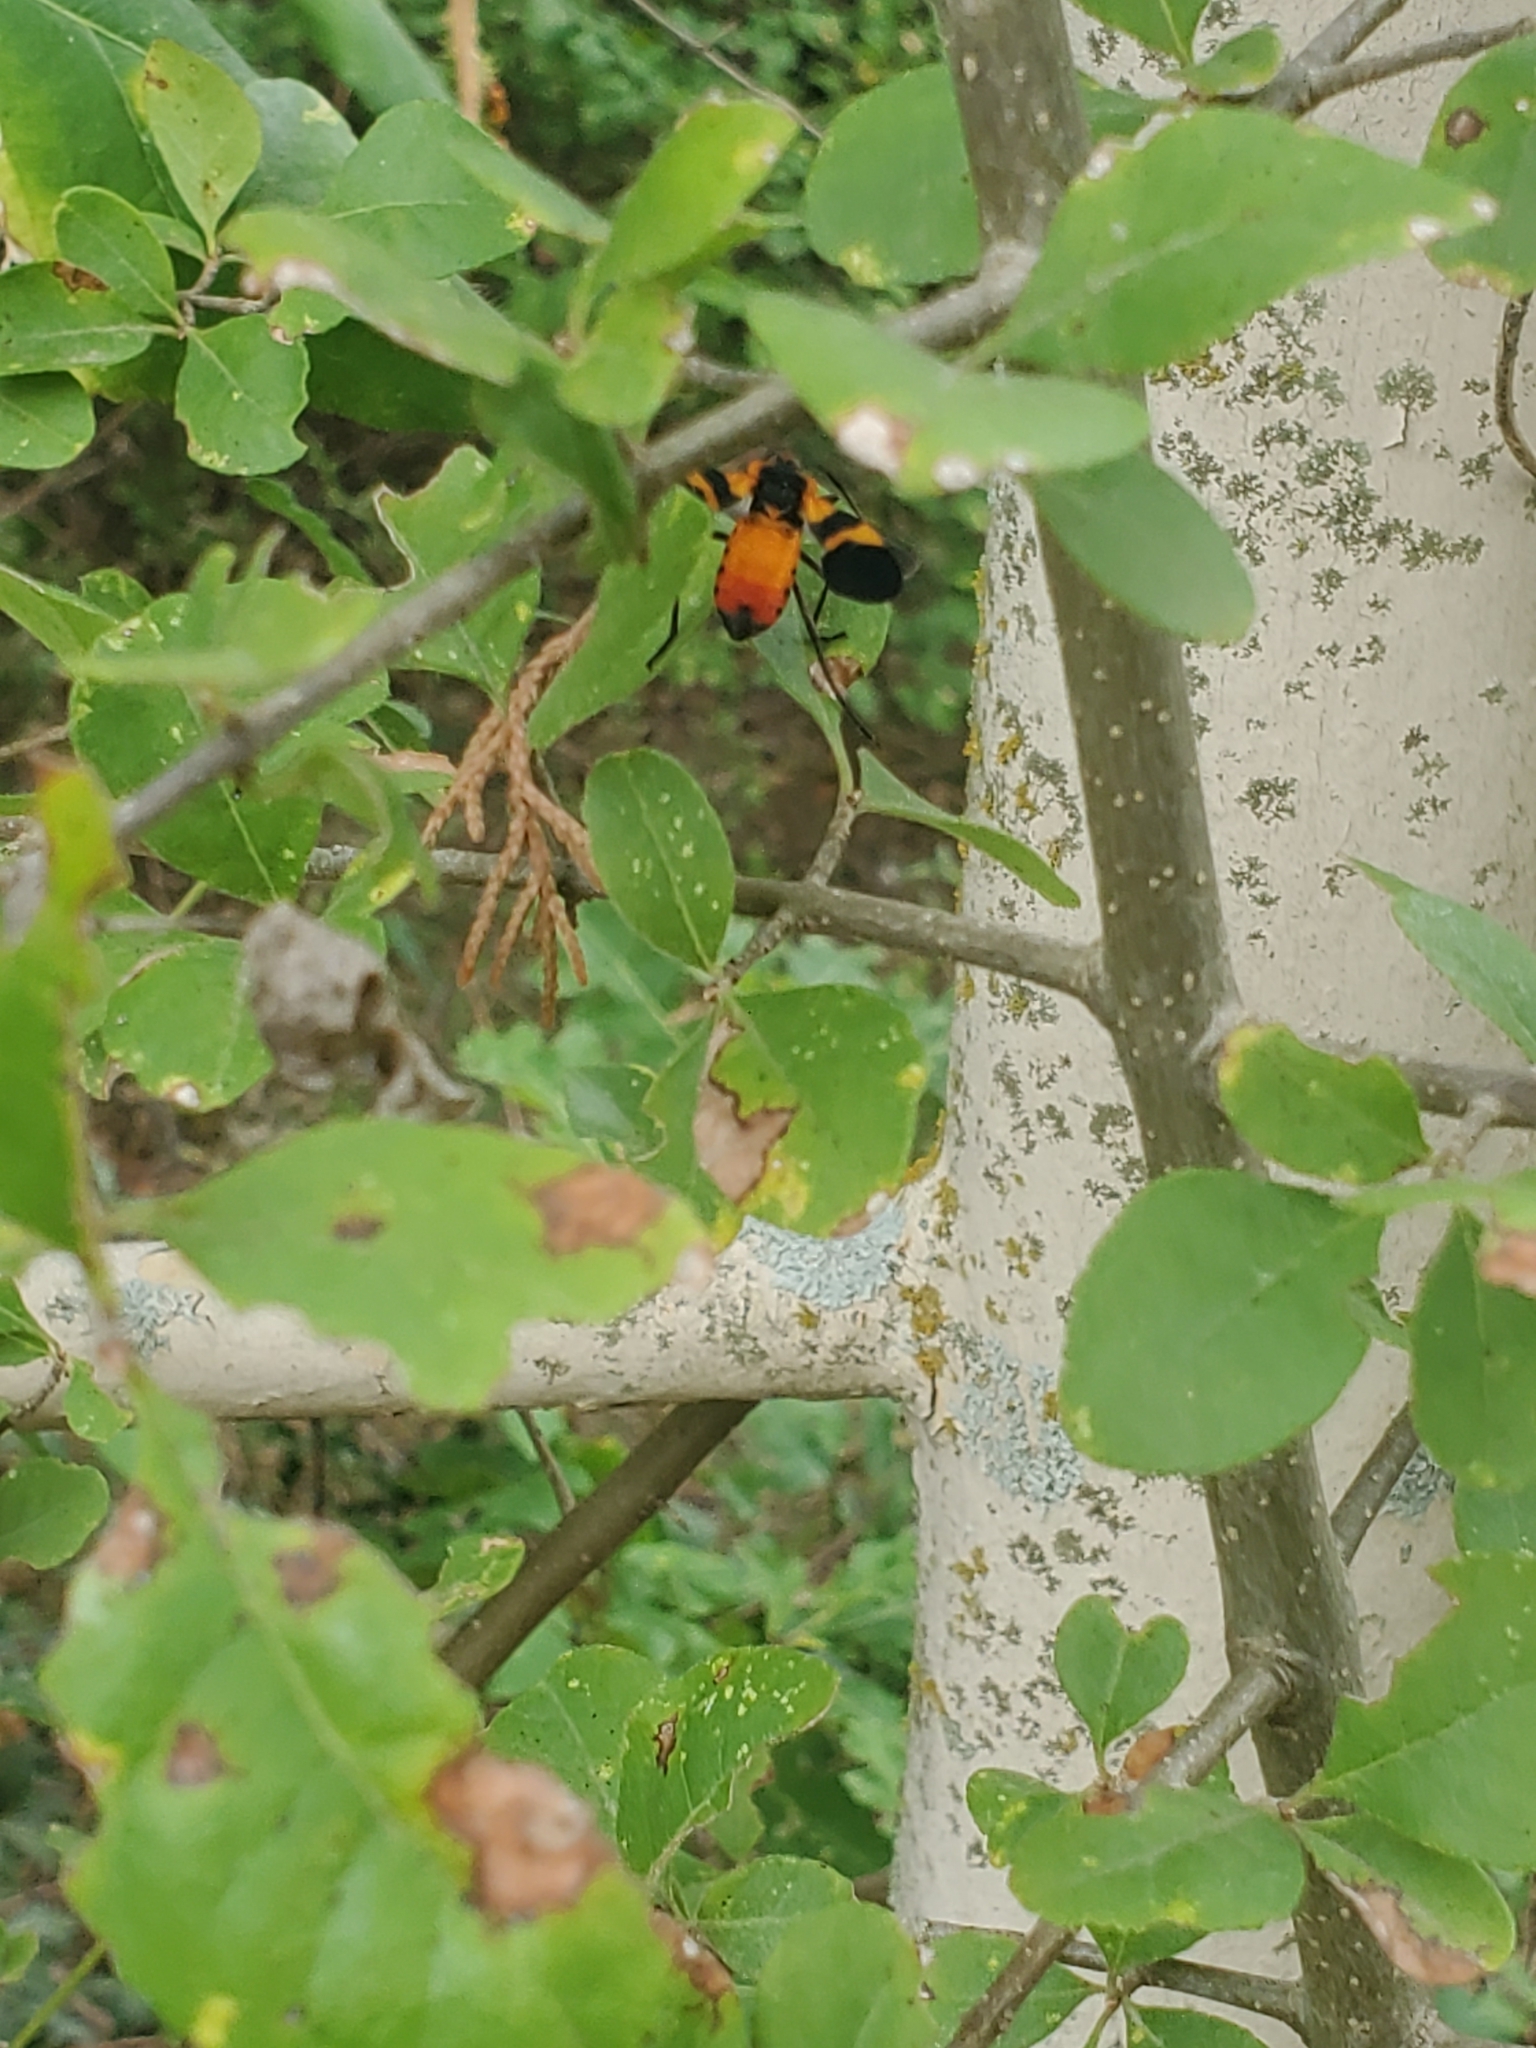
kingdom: Animalia
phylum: Arthropoda
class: Insecta
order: Hemiptera
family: Lygaeidae
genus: Oncopeltus
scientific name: Oncopeltus fasciatus
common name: Large milkweed bug
